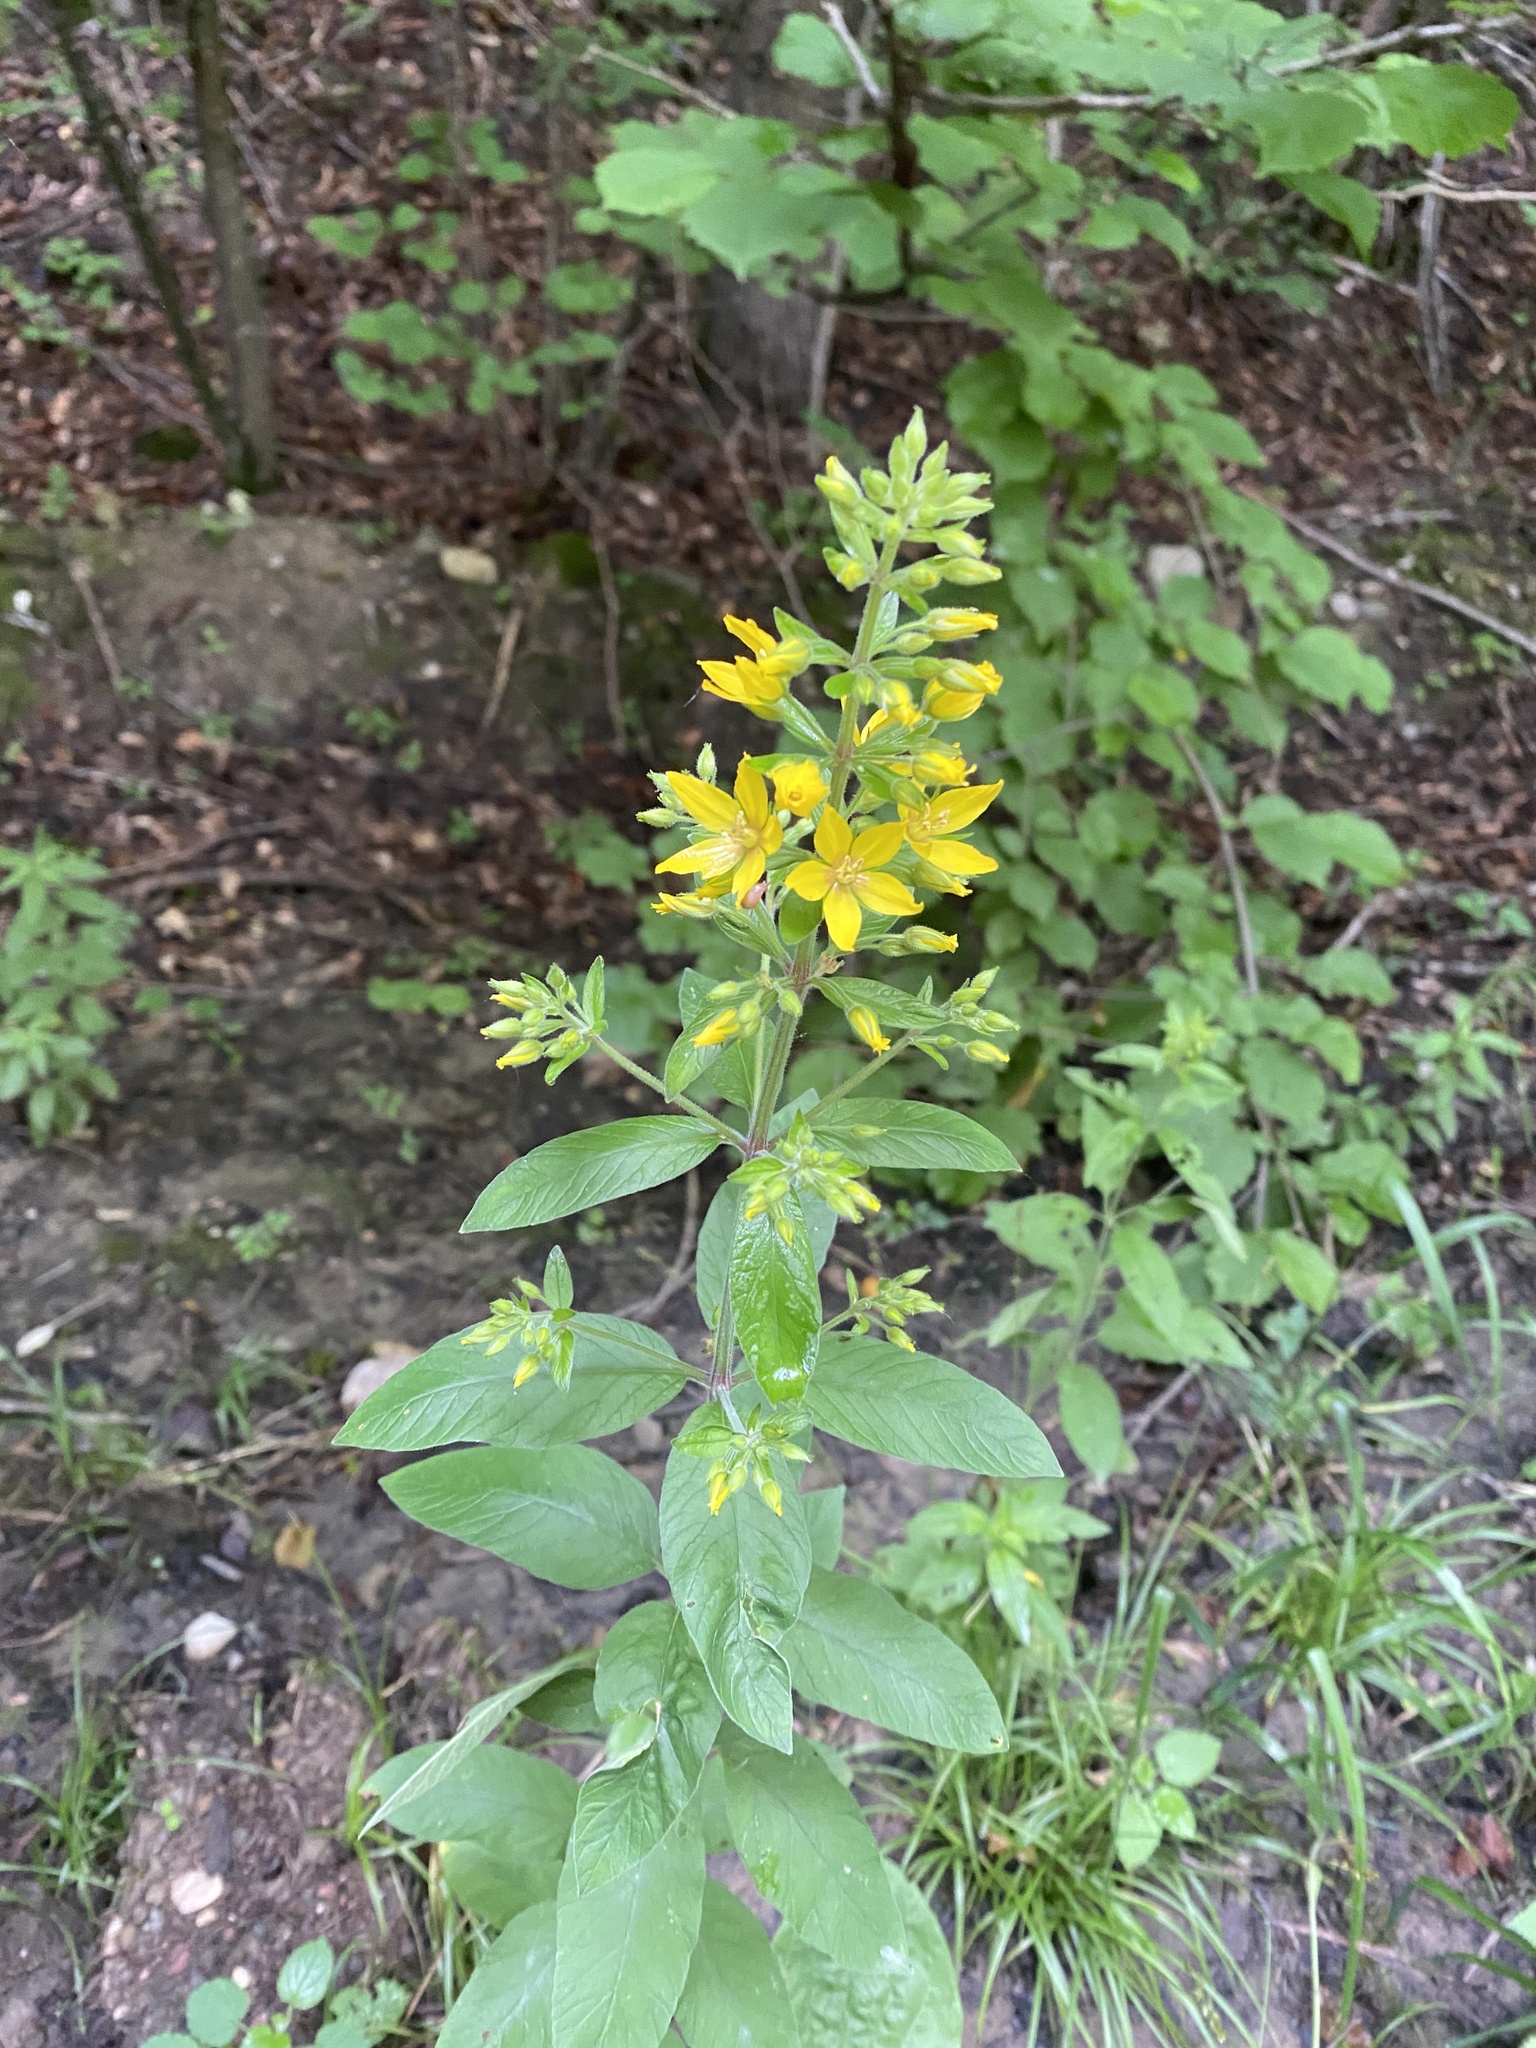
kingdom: Plantae
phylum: Tracheophyta
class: Magnoliopsida
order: Ericales
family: Primulaceae
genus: Lysimachia
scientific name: Lysimachia verticillaris
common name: Yellow loosestrife
